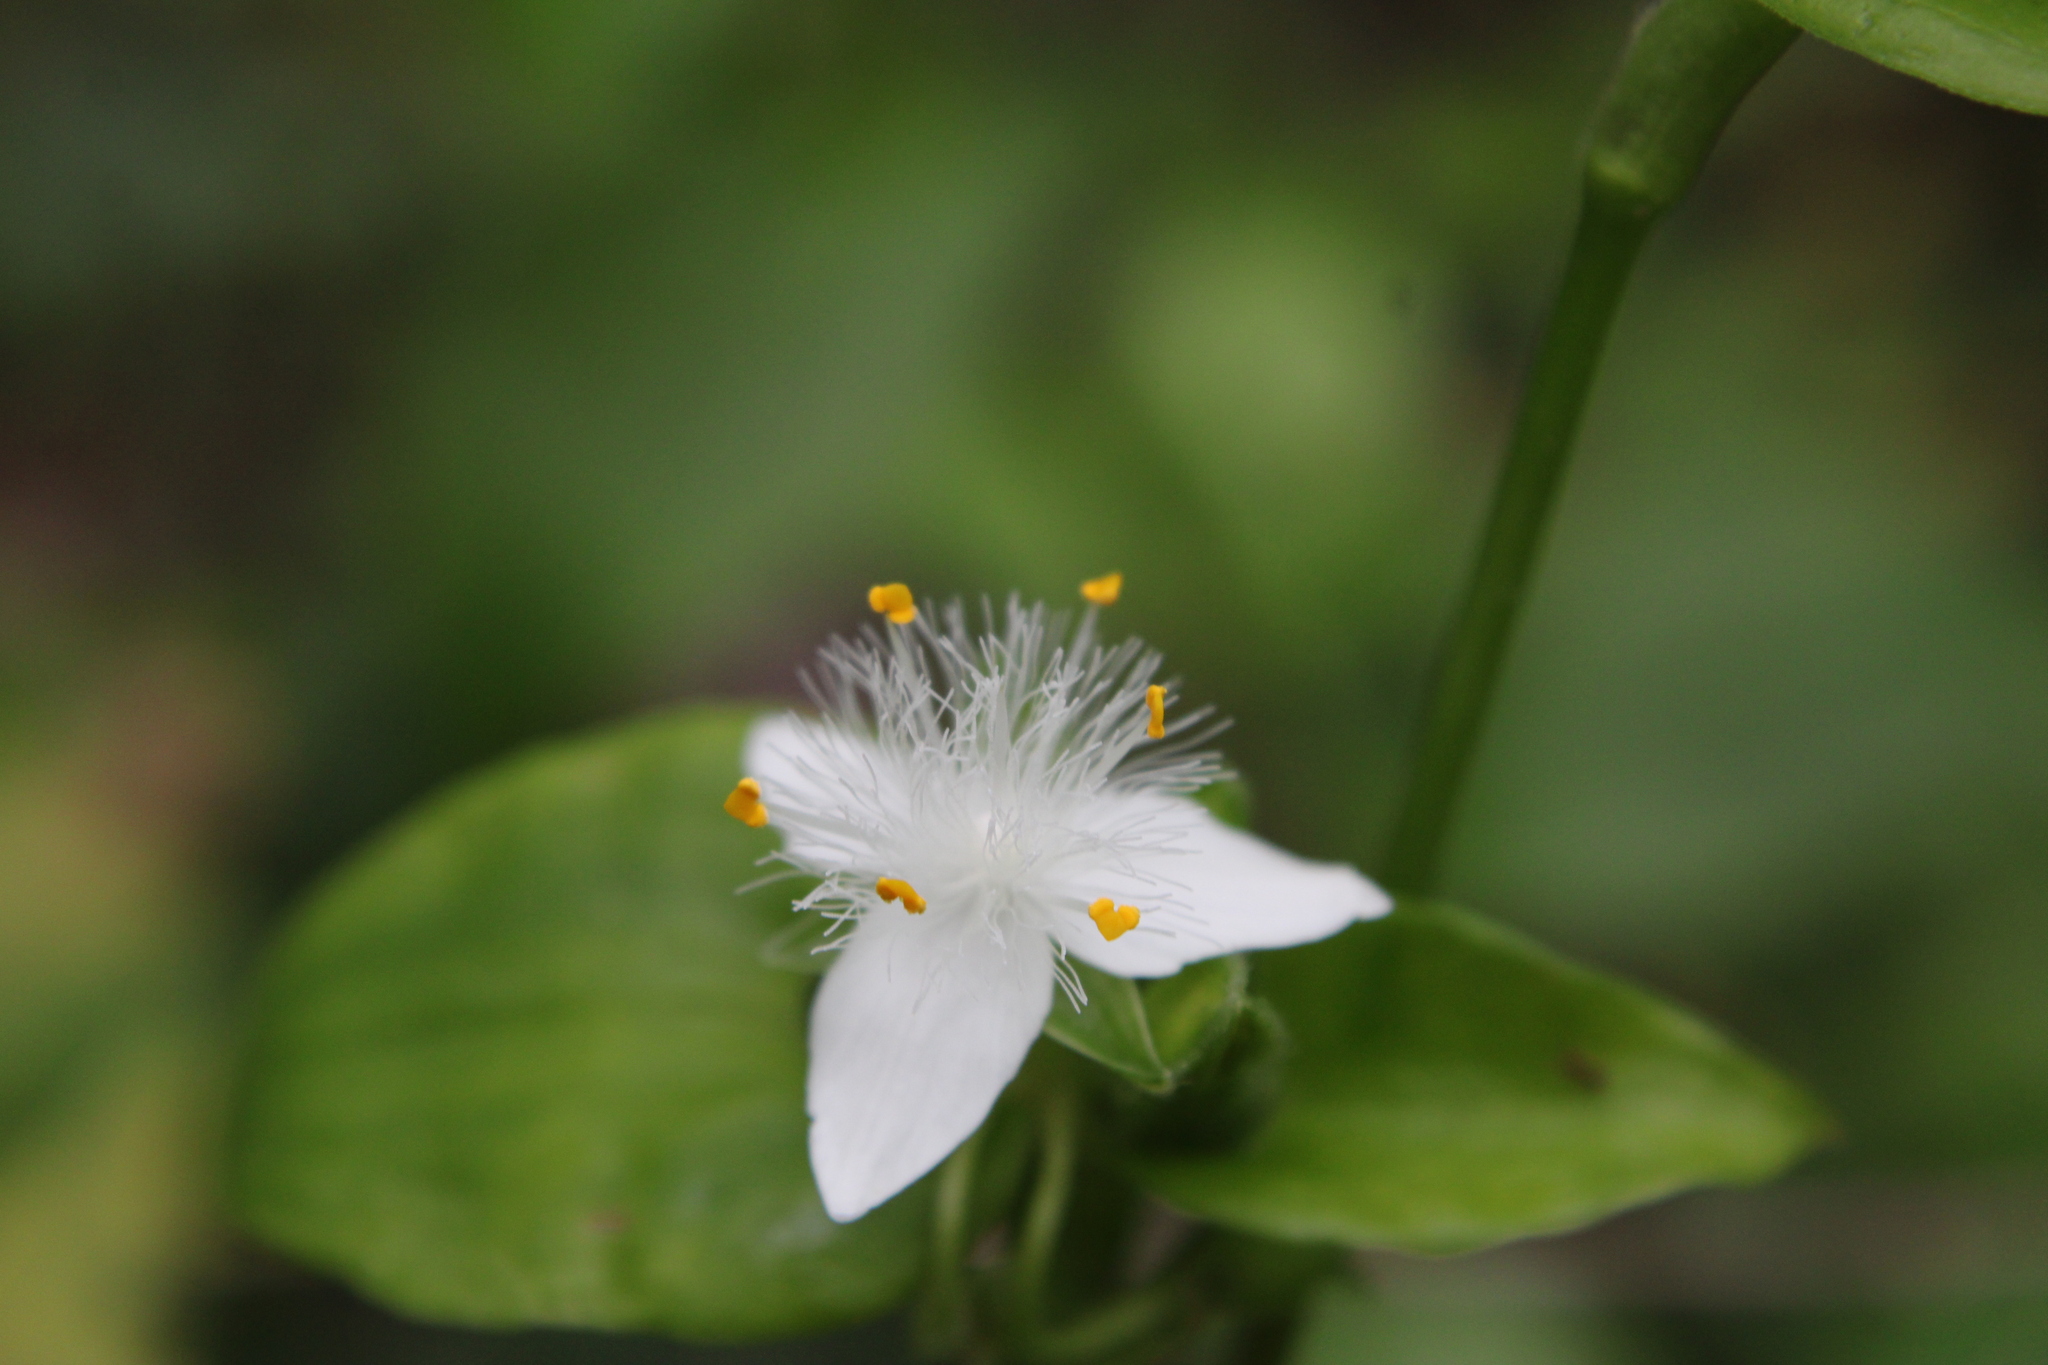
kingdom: Plantae
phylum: Tracheophyta
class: Liliopsida
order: Commelinales
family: Commelinaceae
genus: Tradescantia
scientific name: Tradescantia fluminensis
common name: Wandering-jew
